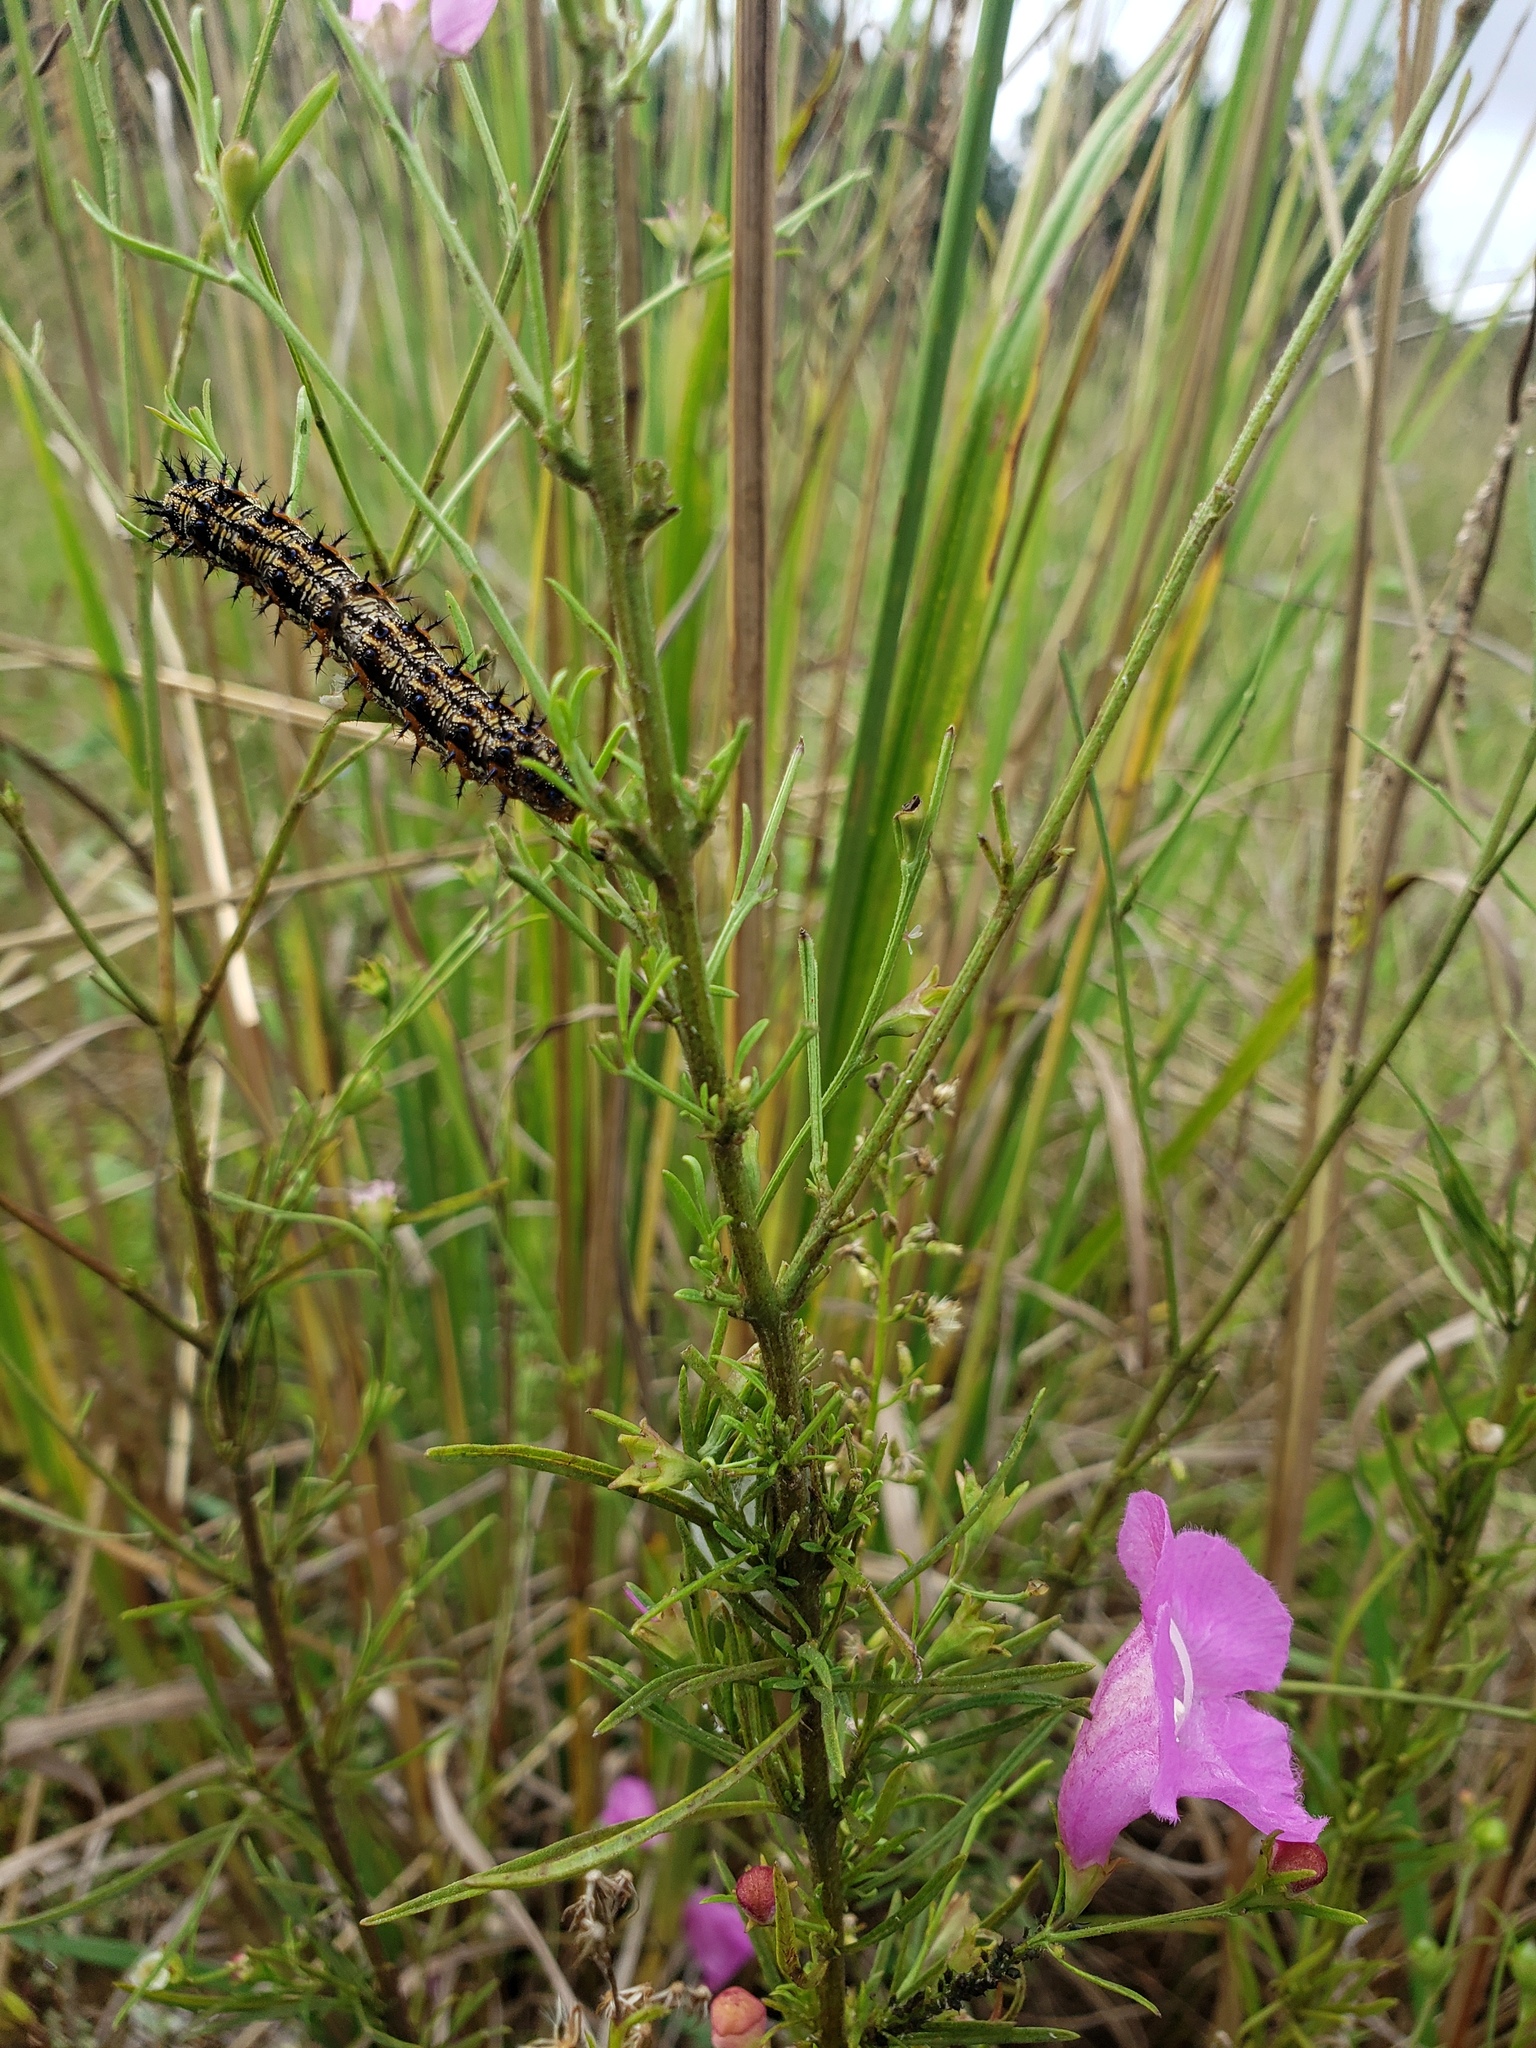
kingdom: Animalia
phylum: Arthropoda
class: Insecta
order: Lepidoptera
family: Nymphalidae
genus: Junonia
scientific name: Junonia coenia
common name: Common buckeye
